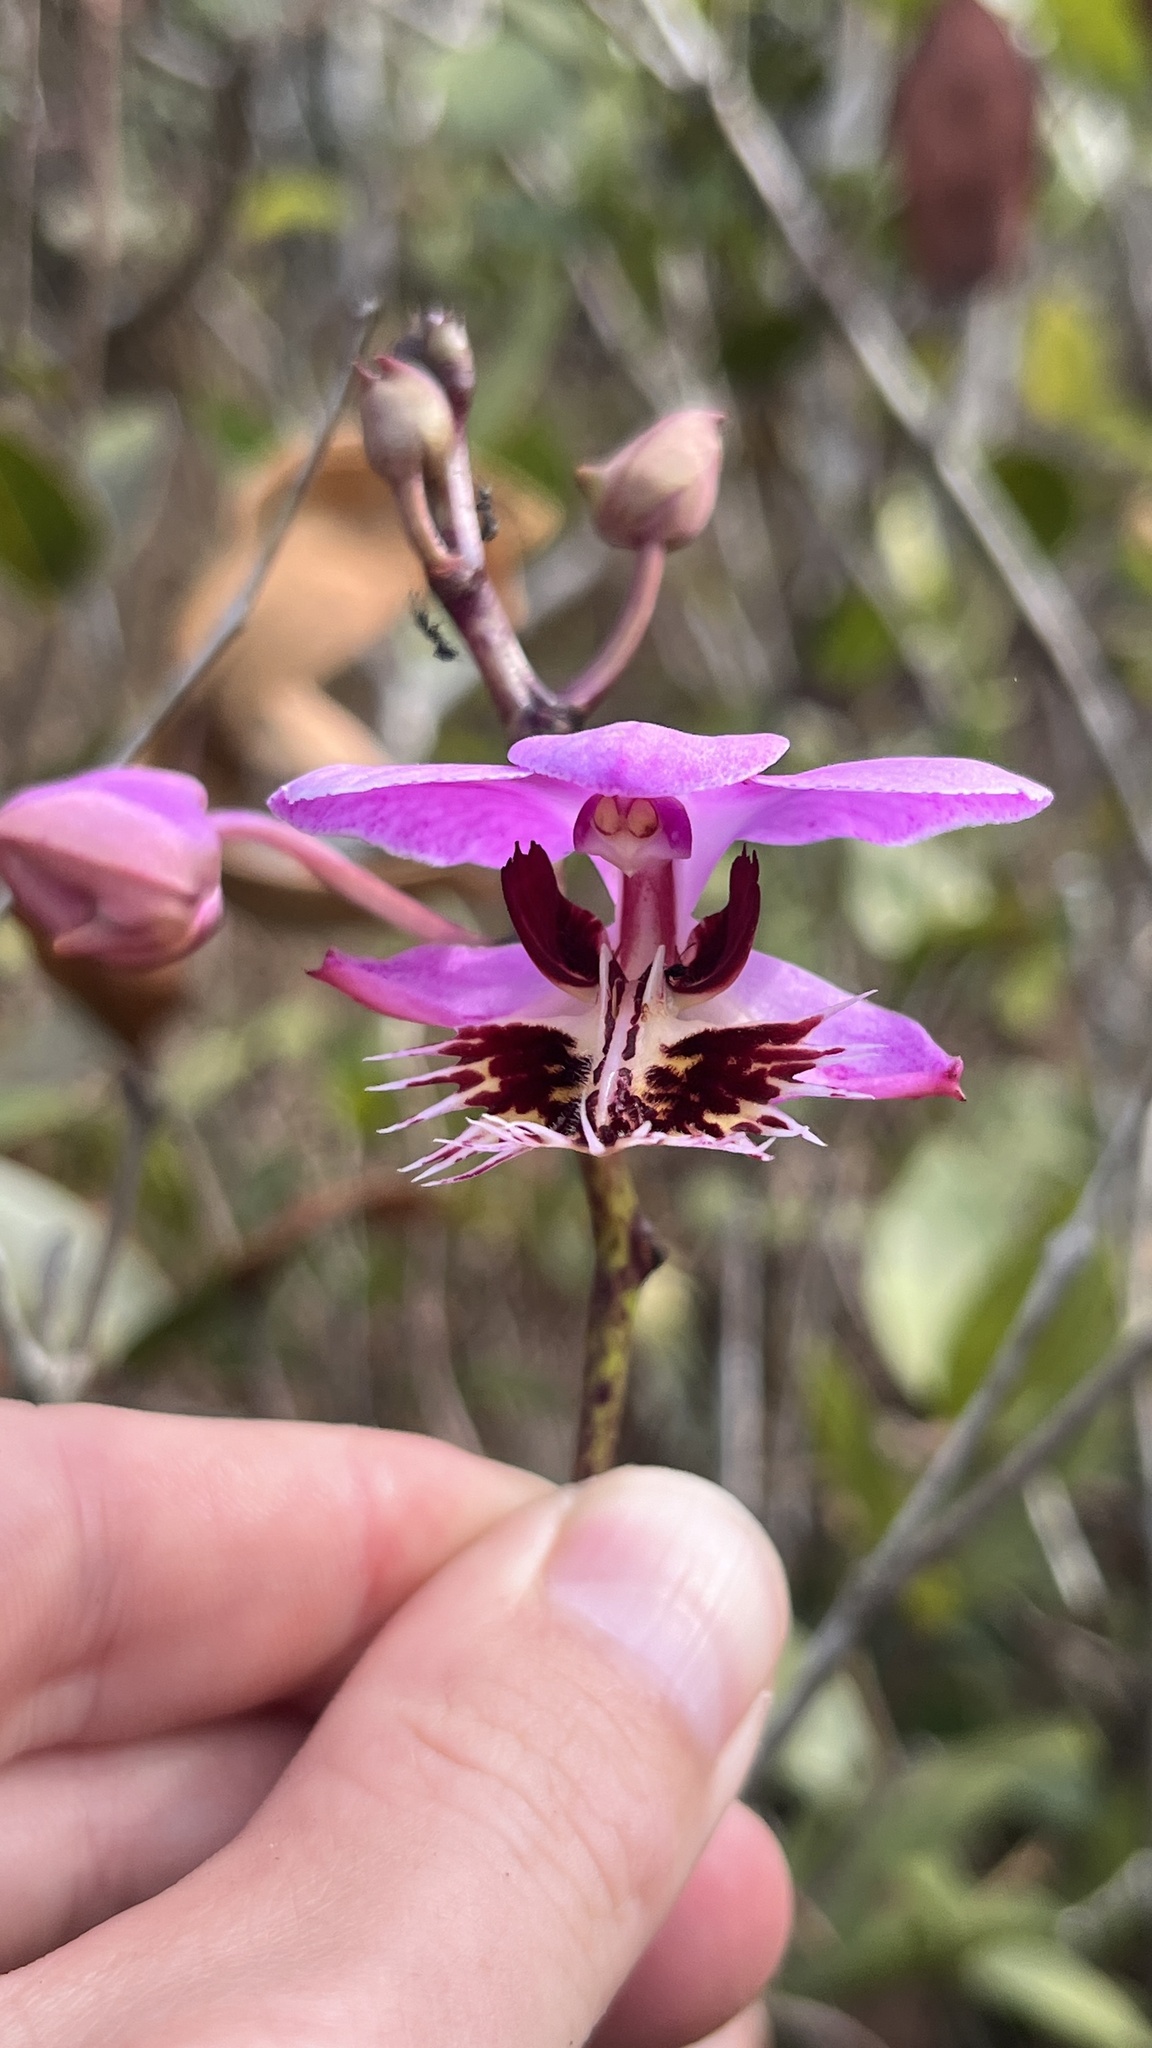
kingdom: Plantae
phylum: Tracheophyta
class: Liliopsida
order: Asparagales
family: Orchidaceae
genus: Papilionanthe
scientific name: Papilionanthe pedunculata
